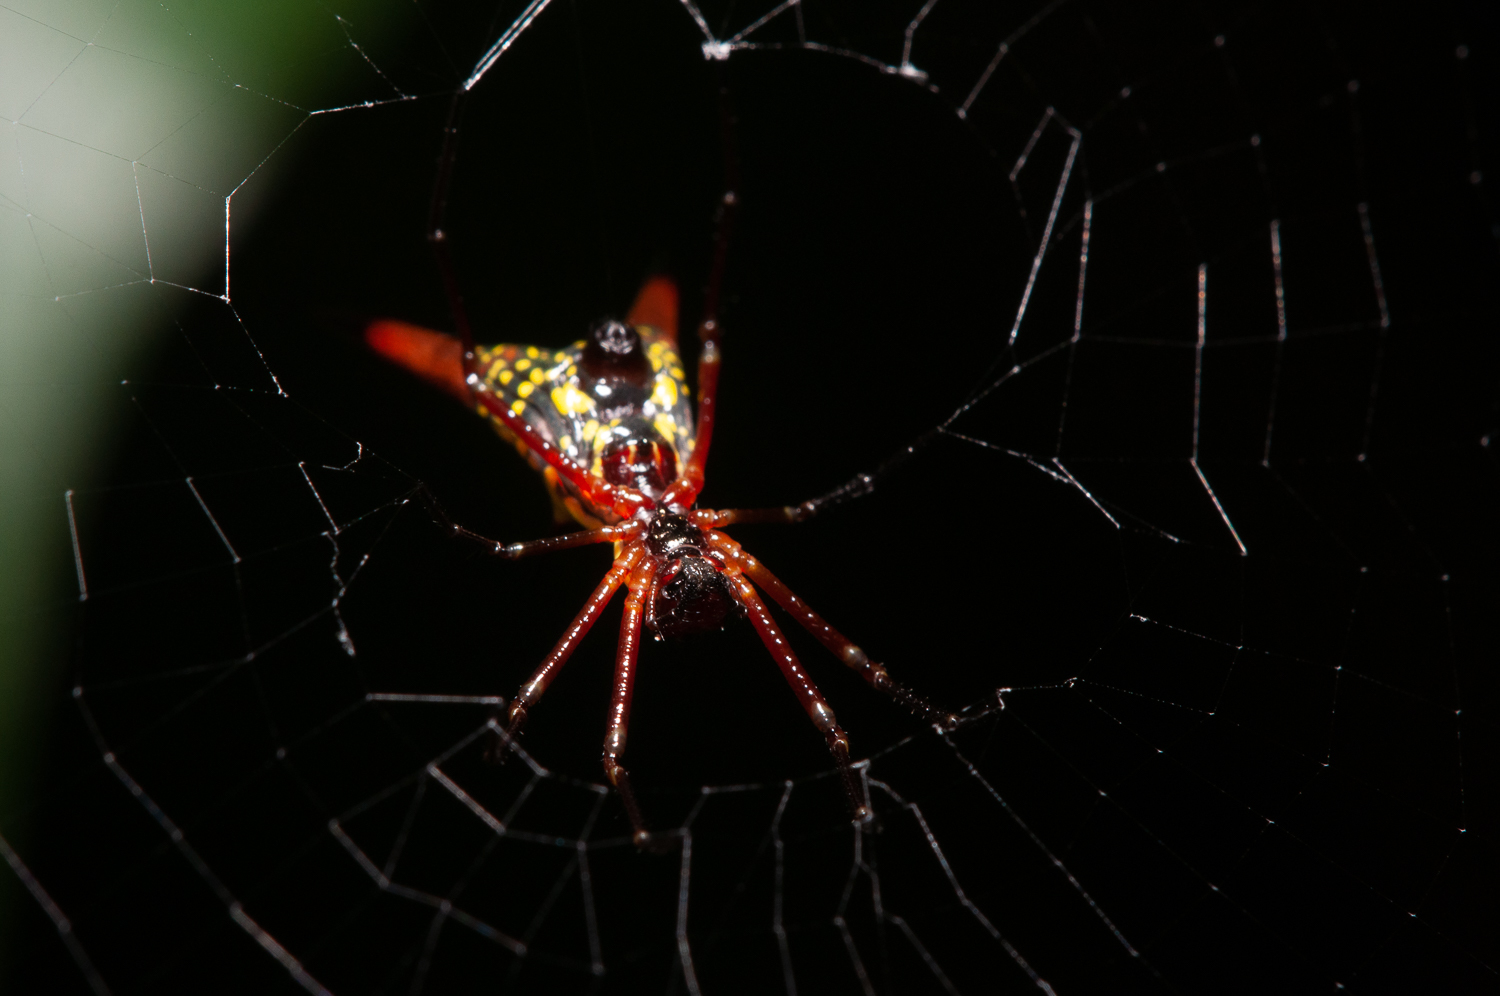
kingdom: Animalia
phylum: Arthropoda
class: Arachnida
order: Araneae
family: Araneidae
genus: Micrathena
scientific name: Micrathena sexspinosa
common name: Orb weavers
